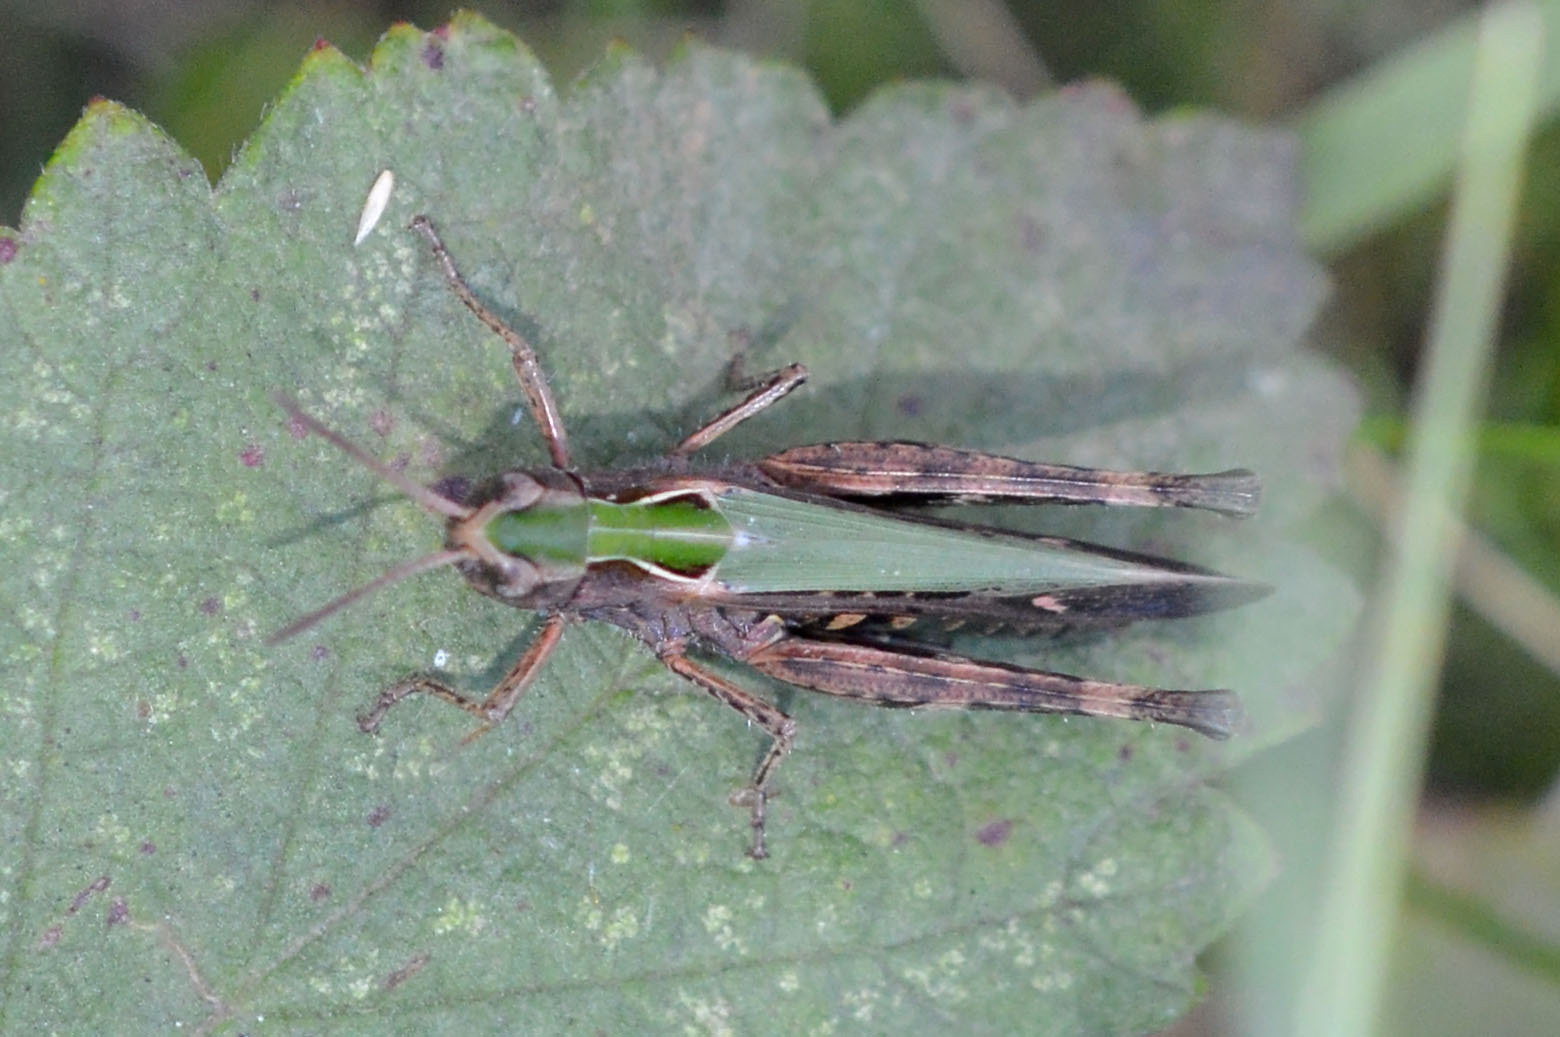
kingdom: Animalia
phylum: Arthropoda
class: Insecta
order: Orthoptera
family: Acrididae
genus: Omocestus
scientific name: Omocestus rufipes
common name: Woodland grasshopper
